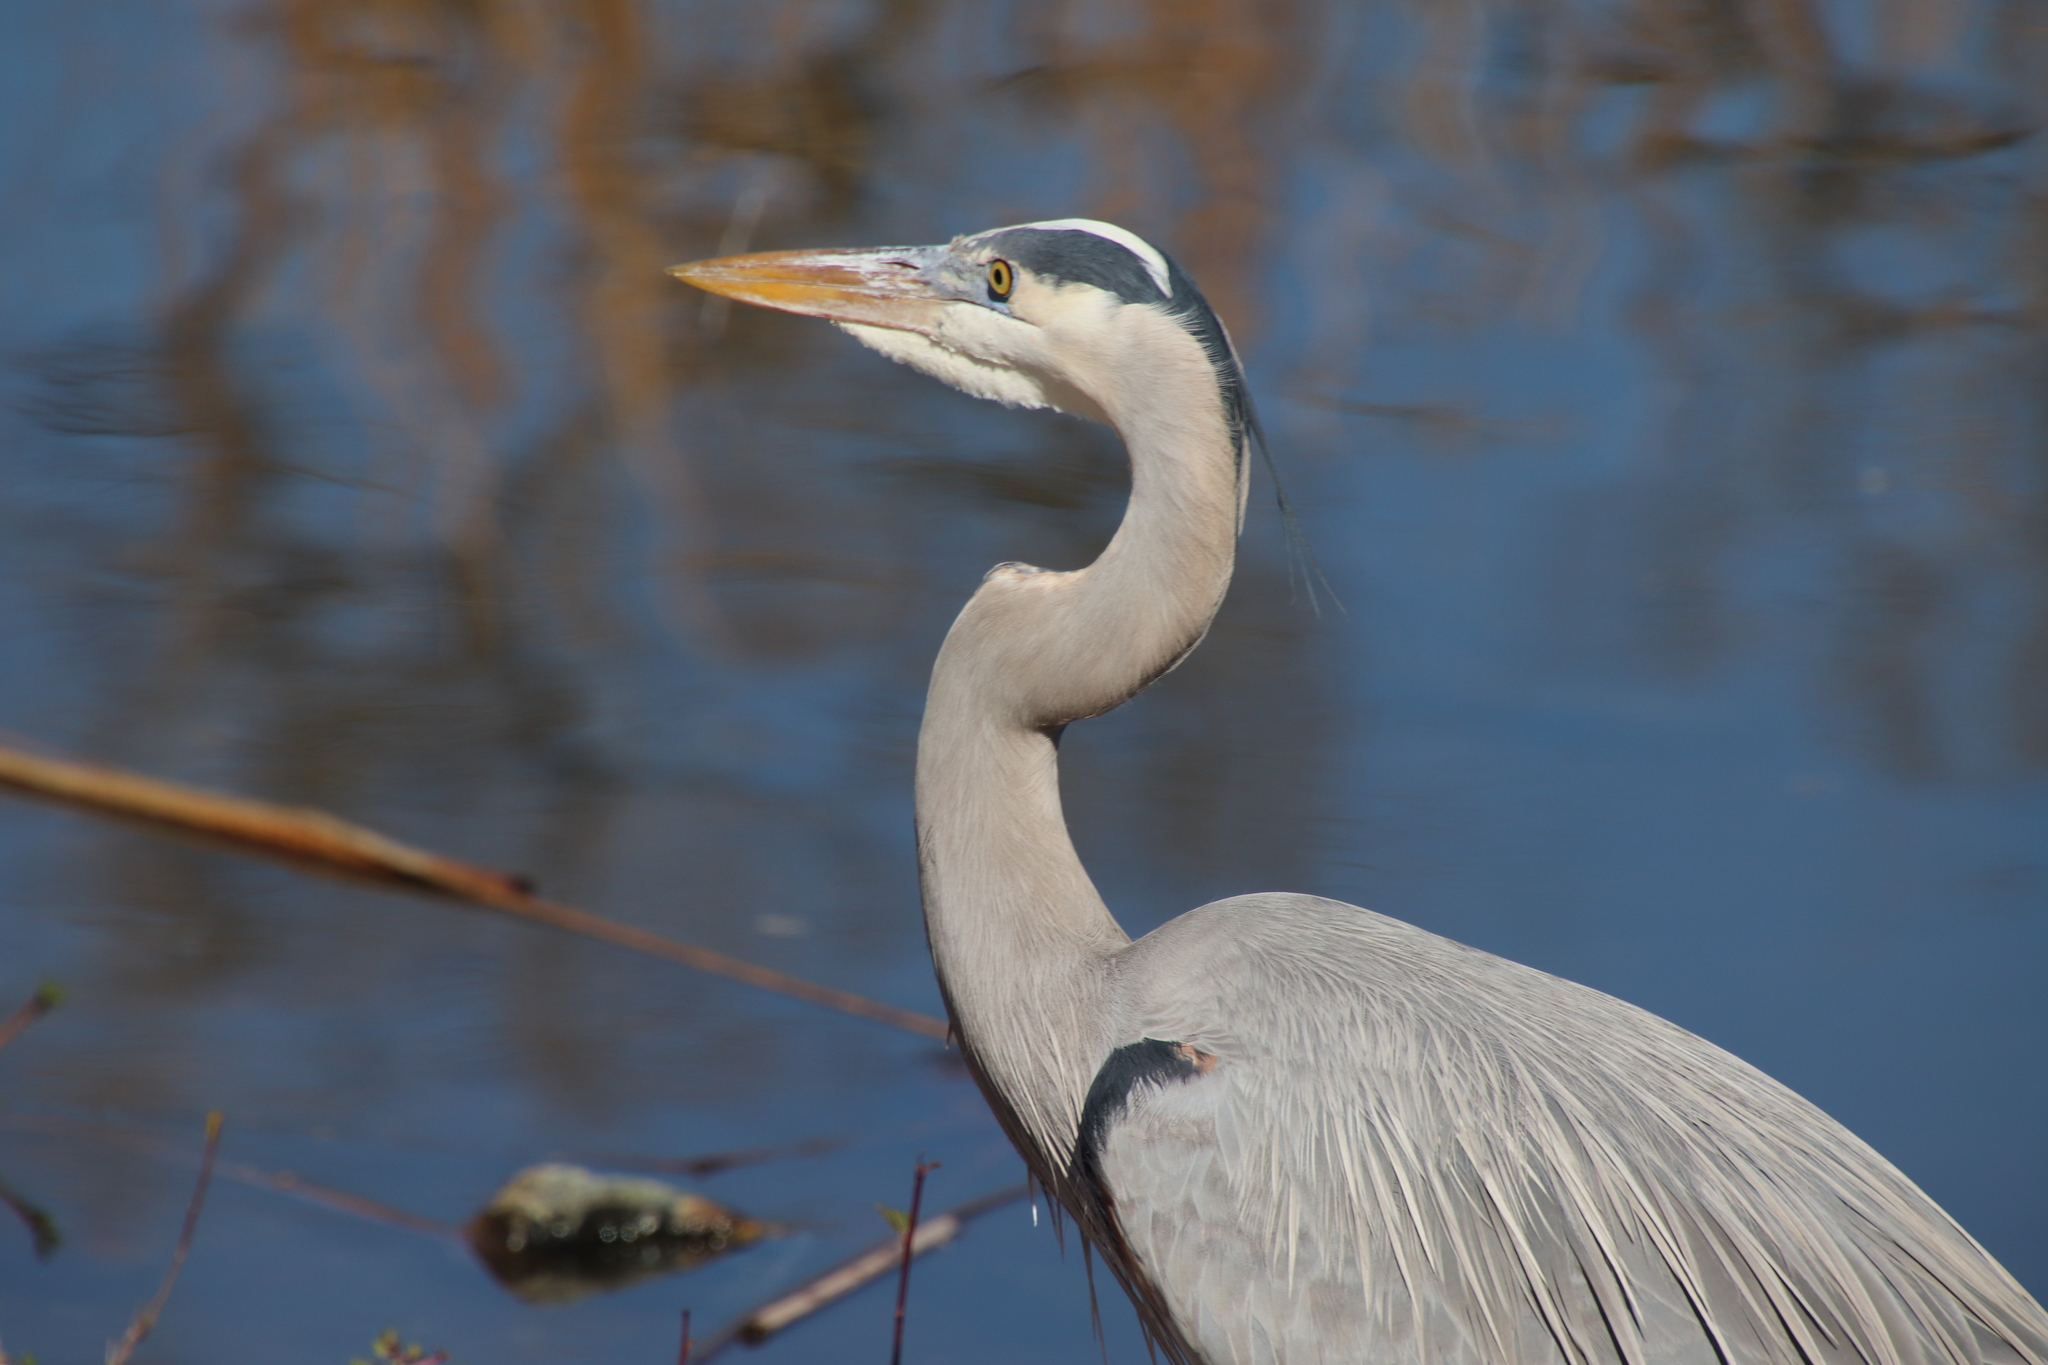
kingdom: Animalia
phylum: Chordata
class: Aves
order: Pelecaniformes
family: Ardeidae
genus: Ardea
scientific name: Ardea herodias
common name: Great blue heron
